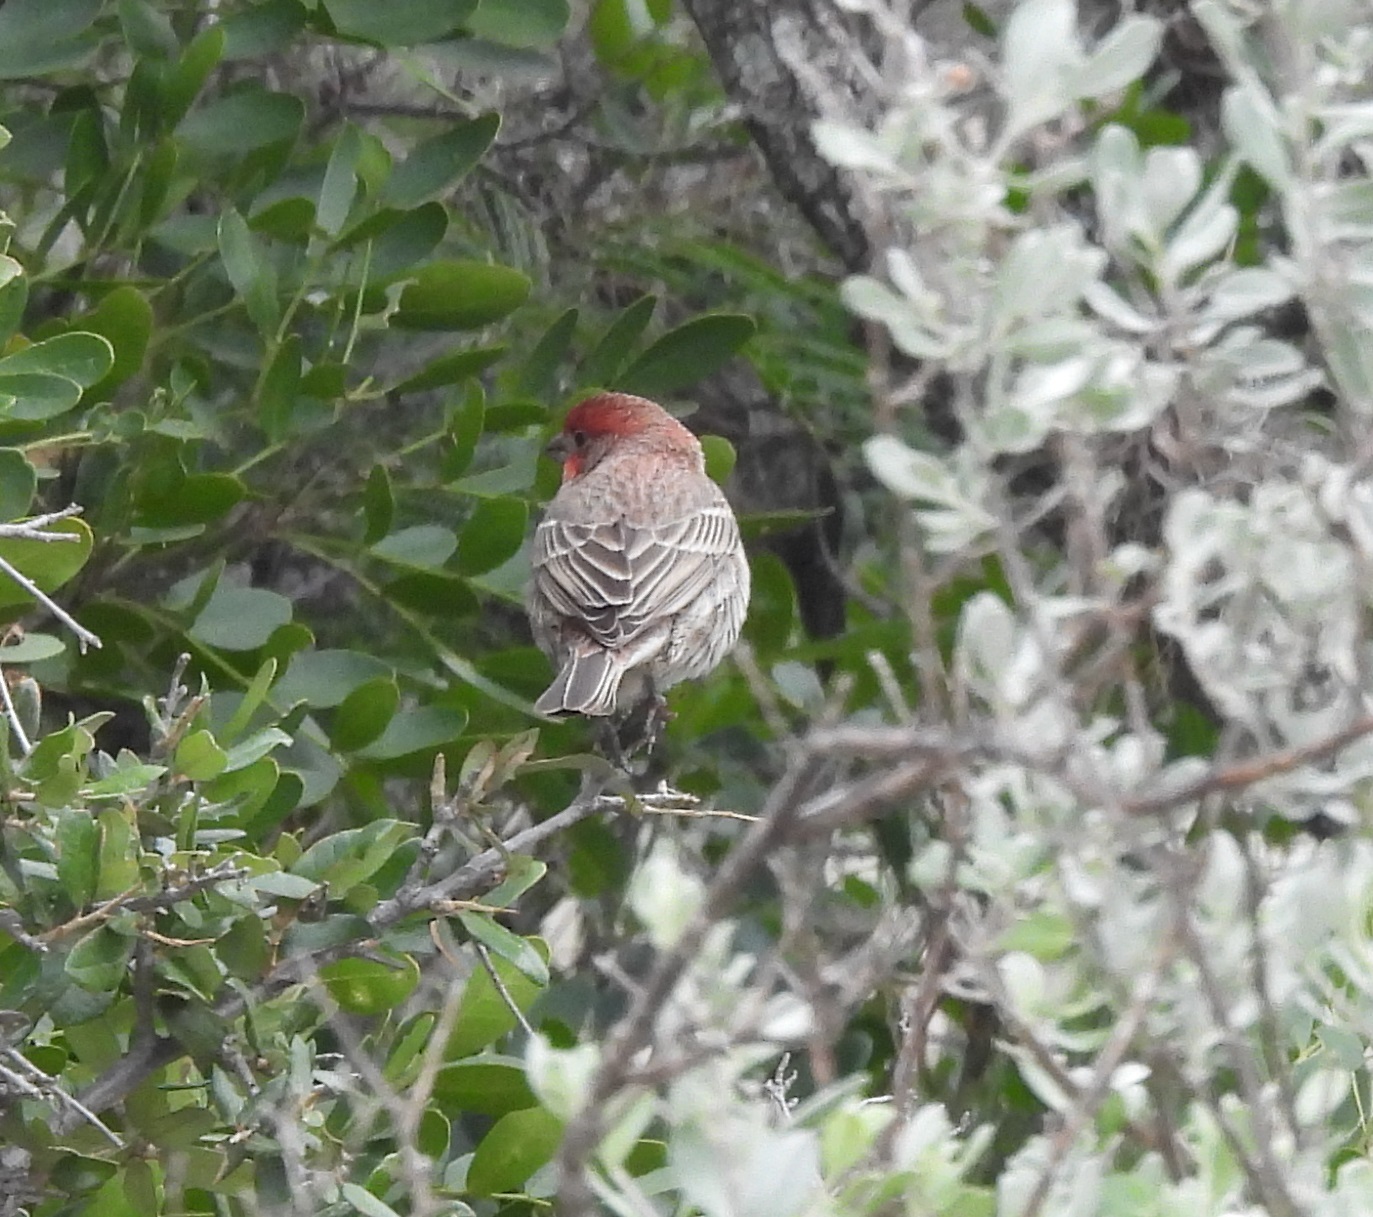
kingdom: Animalia
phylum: Chordata
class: Aves
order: Passeriformes
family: Fringillidae
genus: Haemorhous
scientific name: Haemorhous mexicanus
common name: House finch
